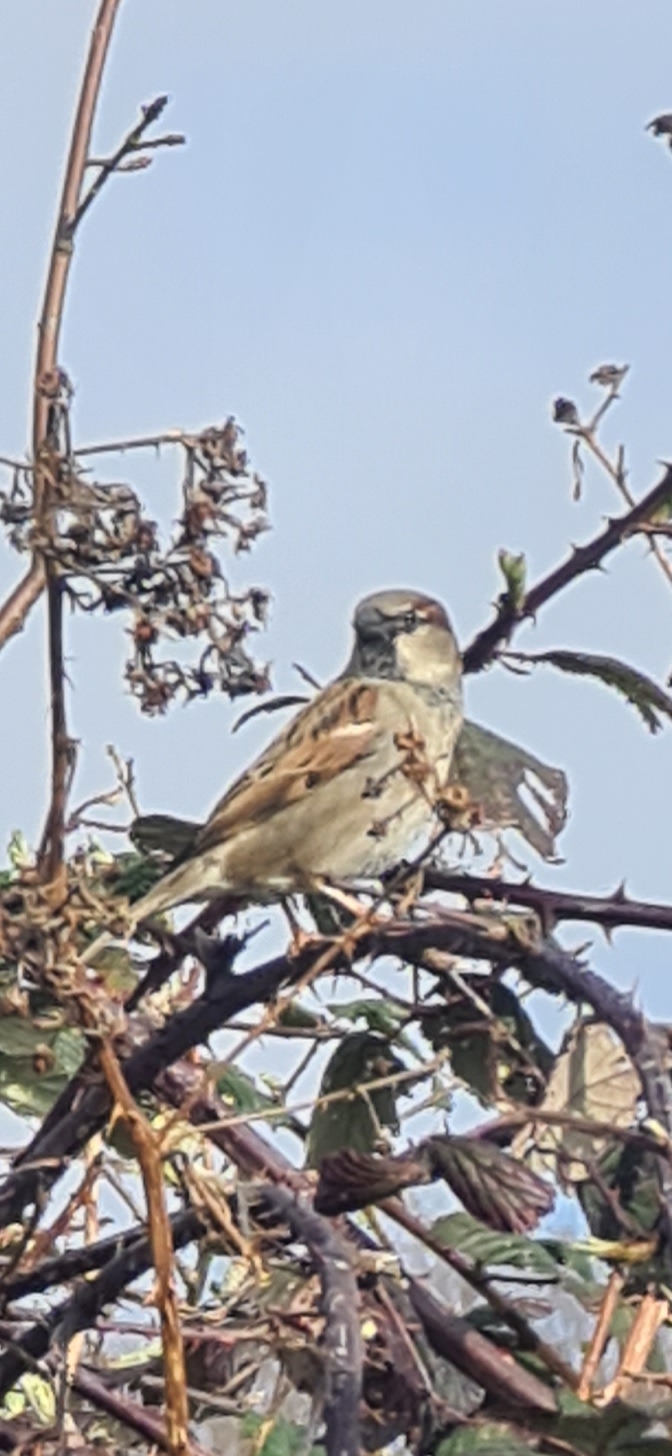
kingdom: Animalia
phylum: Chordata
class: Aves
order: Passeriformes
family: Passeridae
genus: Passer
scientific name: Passer domesticus
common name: House sparrow
